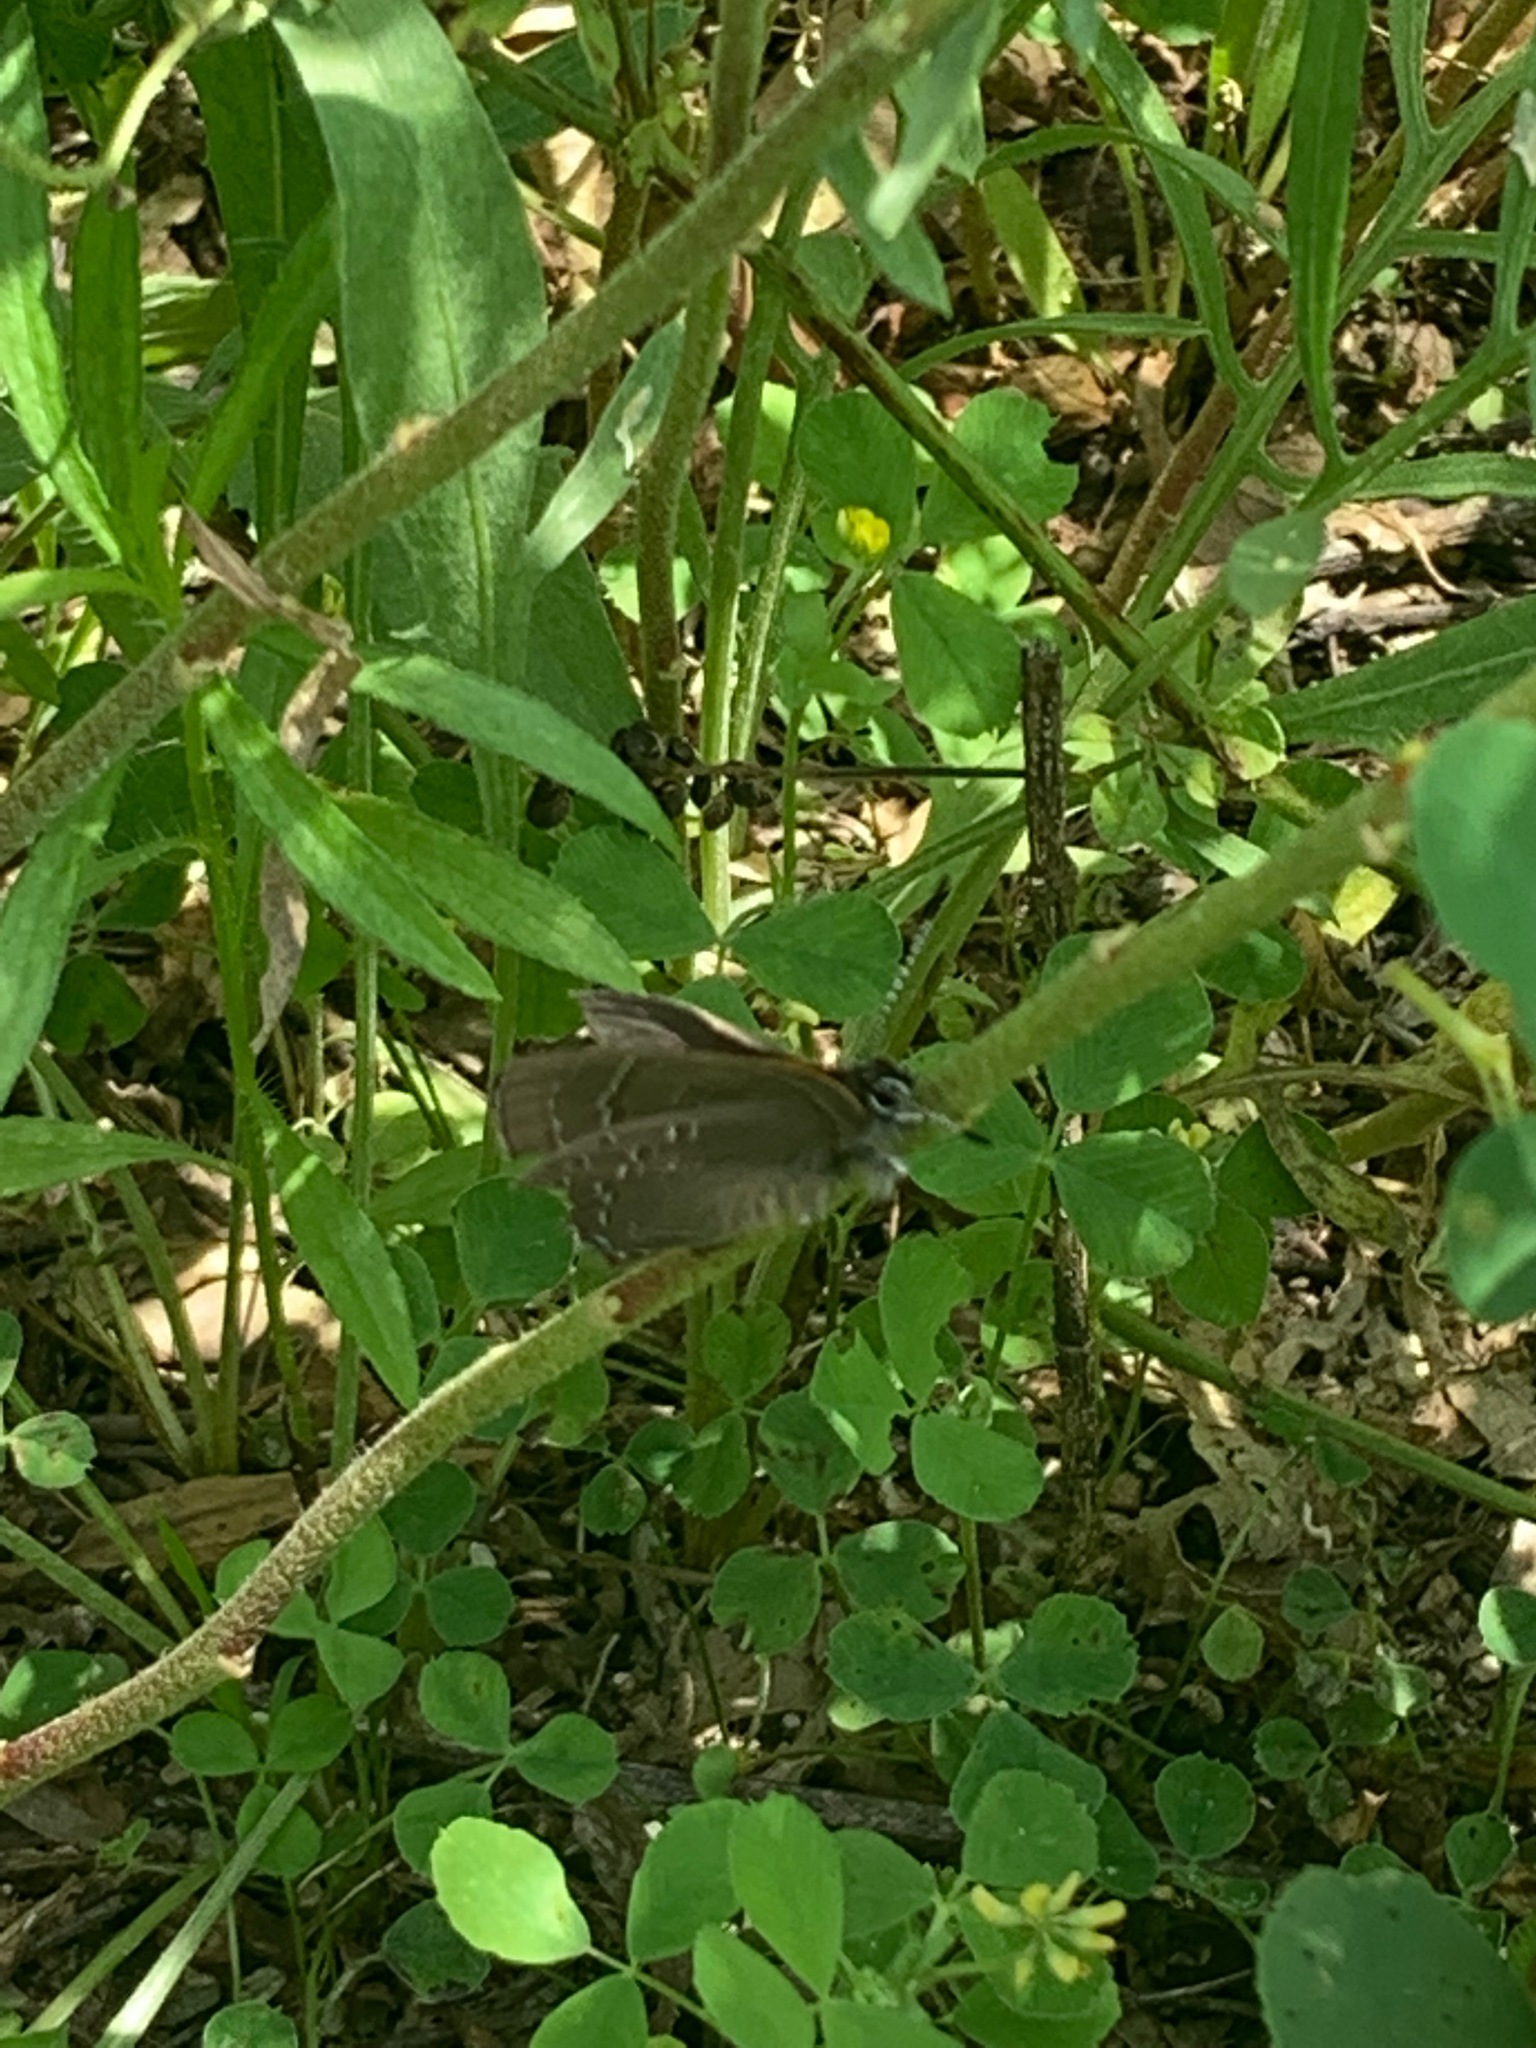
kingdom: Animalia
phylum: Arthropoda
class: Insecta
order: Lepidoptera
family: Lycaenidae
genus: Satyrium
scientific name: Satyrium calanus
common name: Banded hairstreak
